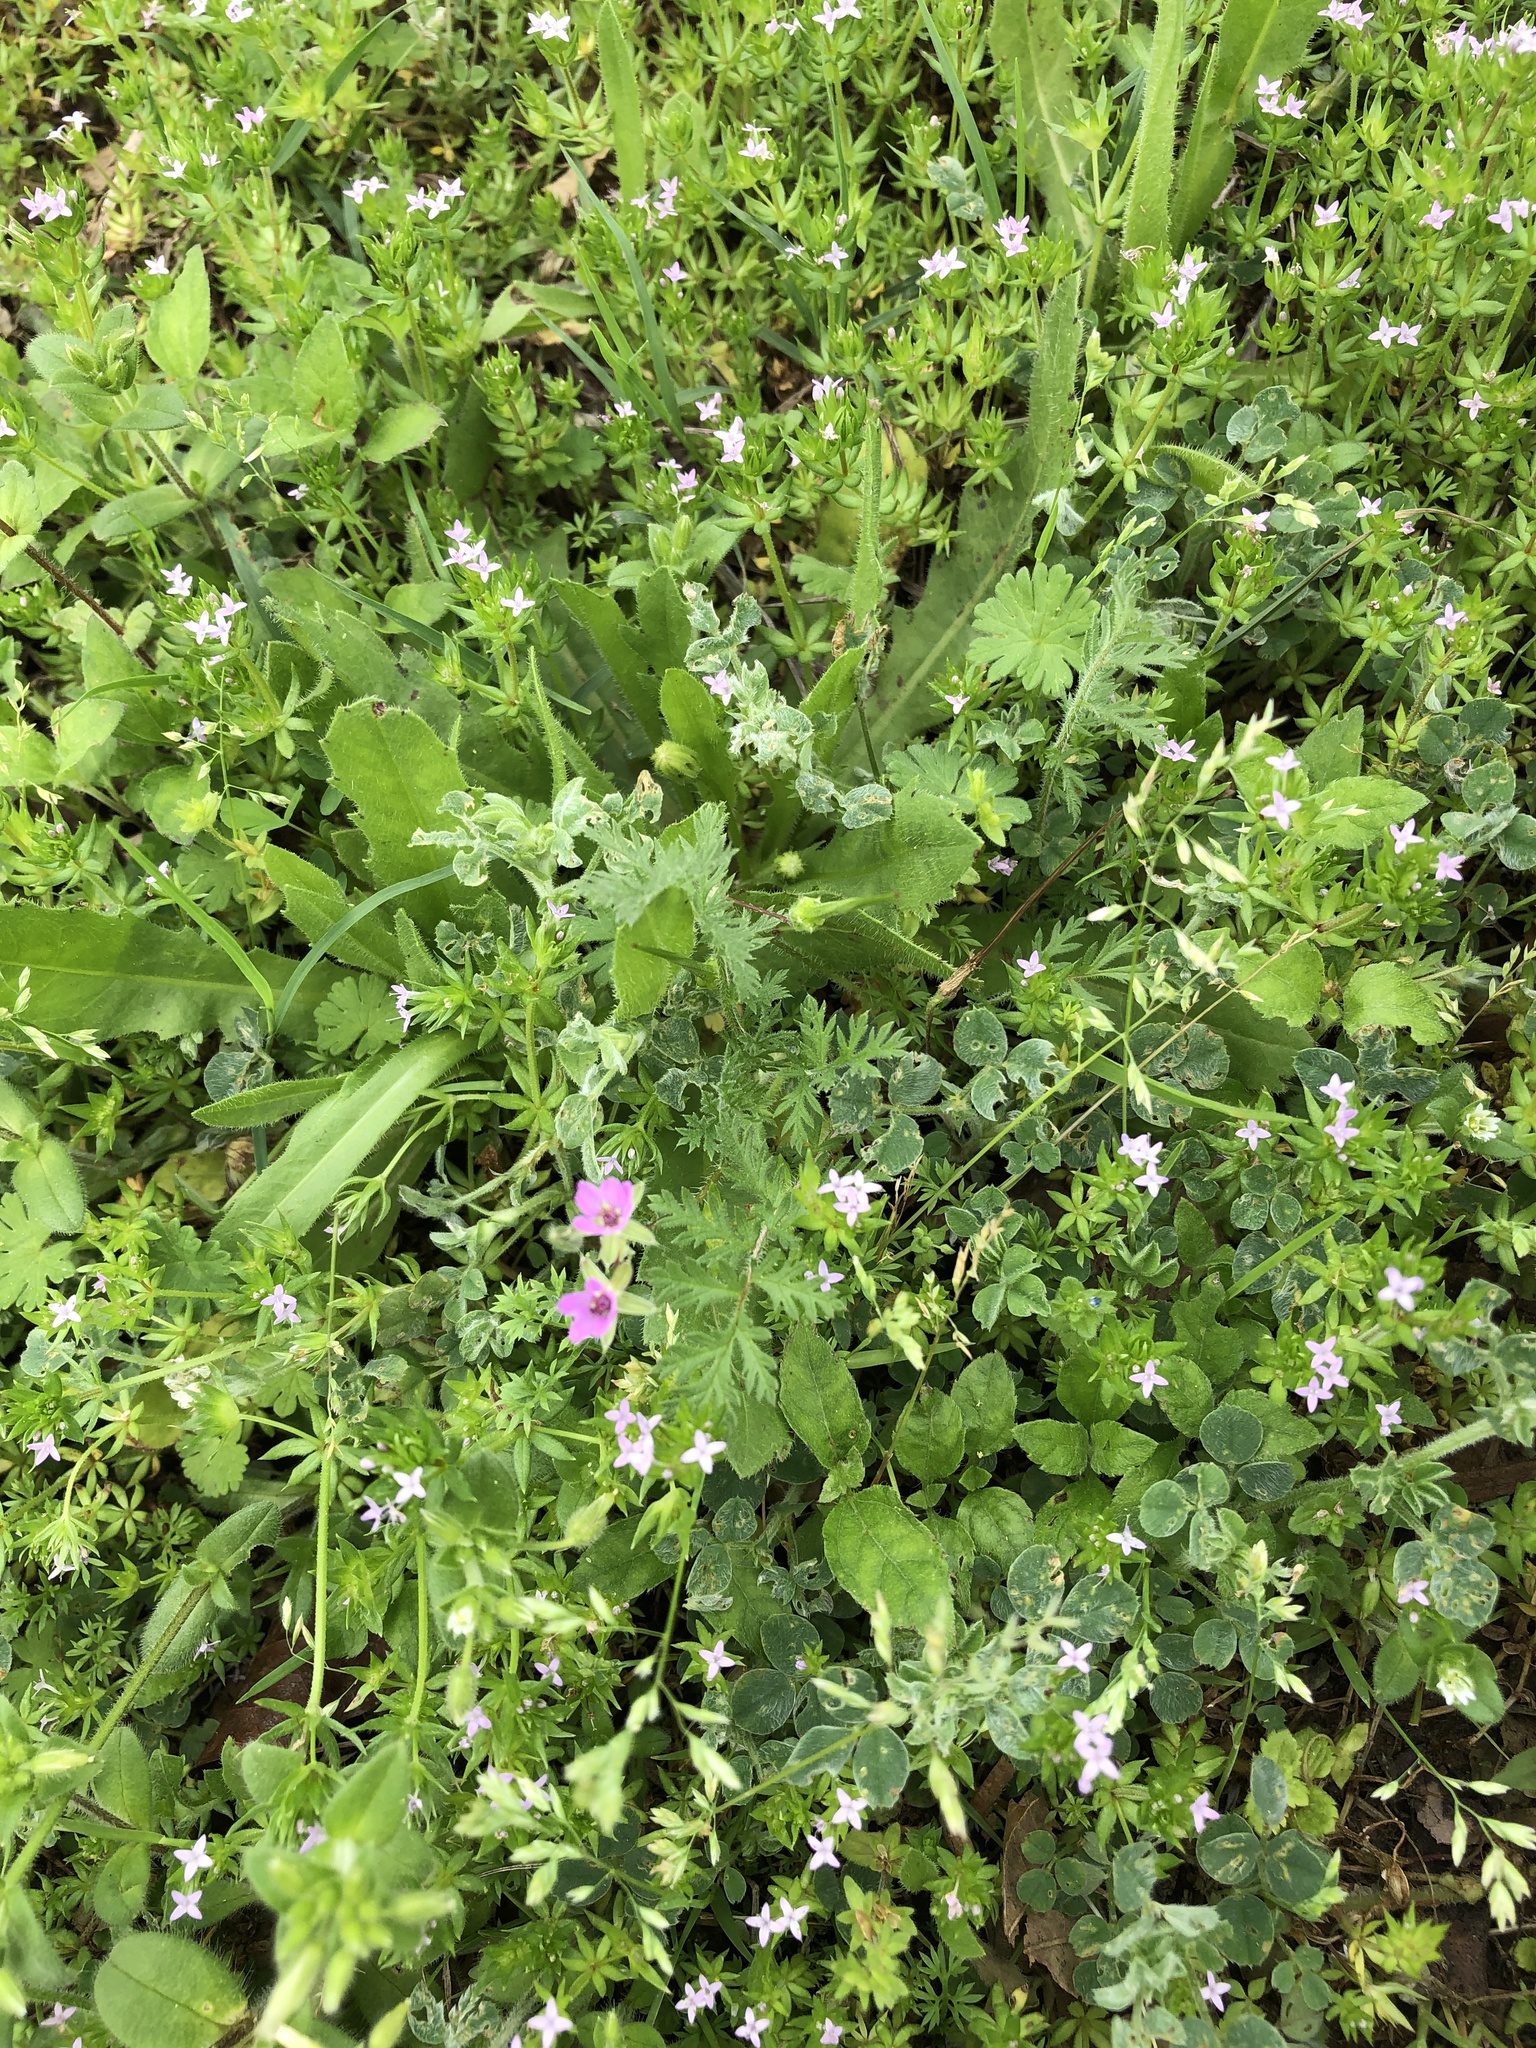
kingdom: Plantae
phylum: Tracheophyta
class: Magnoliopsida
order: Geraniales
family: Geraniaceae
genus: Erodium
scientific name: Erodium cicutarium
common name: Common stork's-bill
